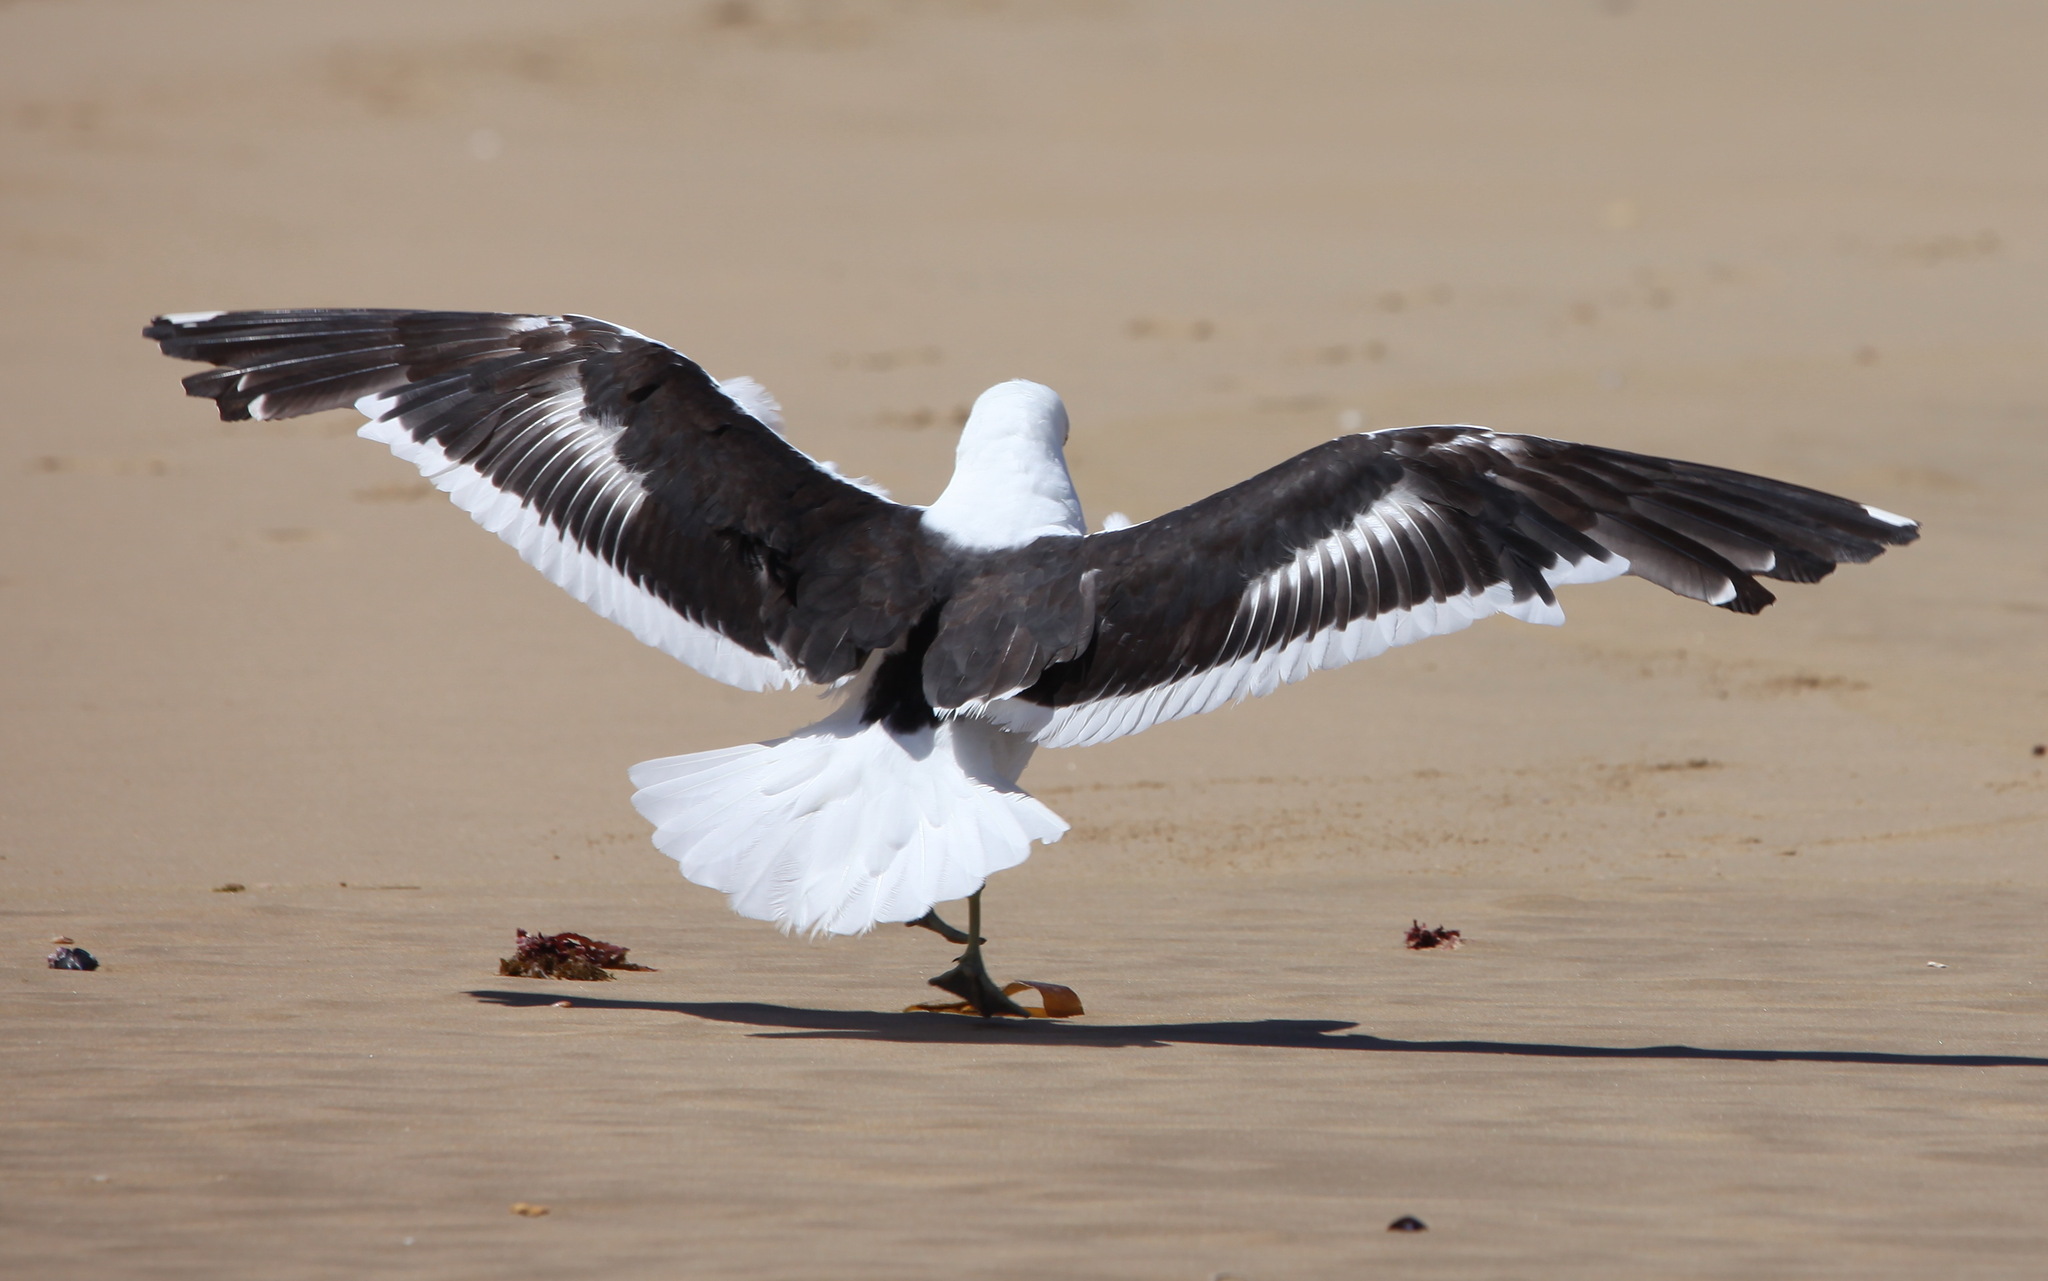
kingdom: Animalia
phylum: Chordata
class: Aves
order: Charadriiformes
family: Laridae
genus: Larus
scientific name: Larus dominicanus
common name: Kelp gull
